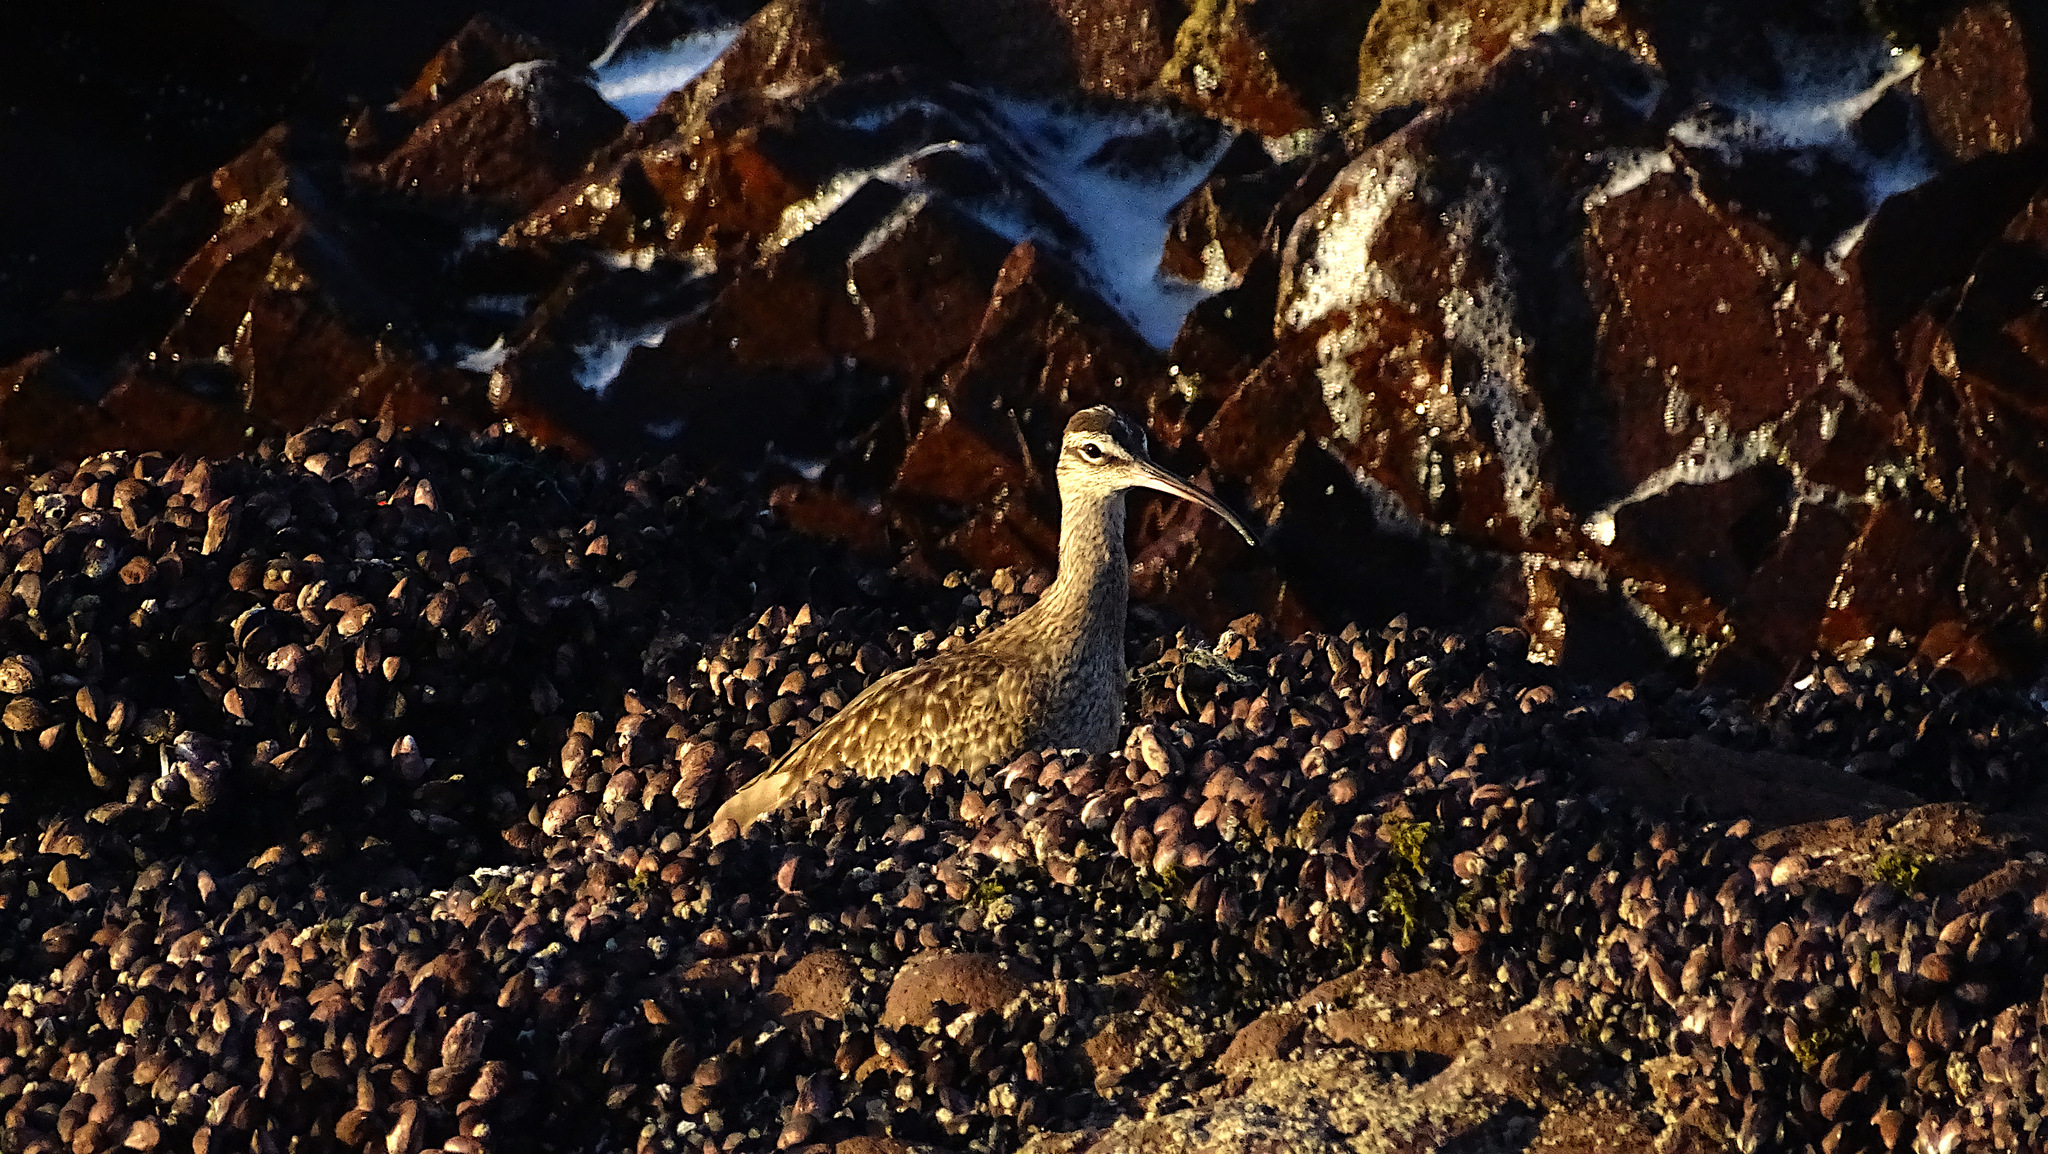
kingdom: Animalia
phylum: Chordata
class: Aves
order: Charadriiformes
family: Scolopacidae
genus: Numenius
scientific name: Numenius phaeopus
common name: Whimbrel
